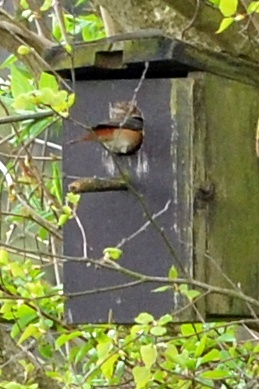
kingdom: Animalia
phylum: Chordata
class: Aves
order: Passeriformes
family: Muscicapidae
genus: Phoenicurus
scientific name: Phoenicurus phoenicurus
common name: Common redstart
